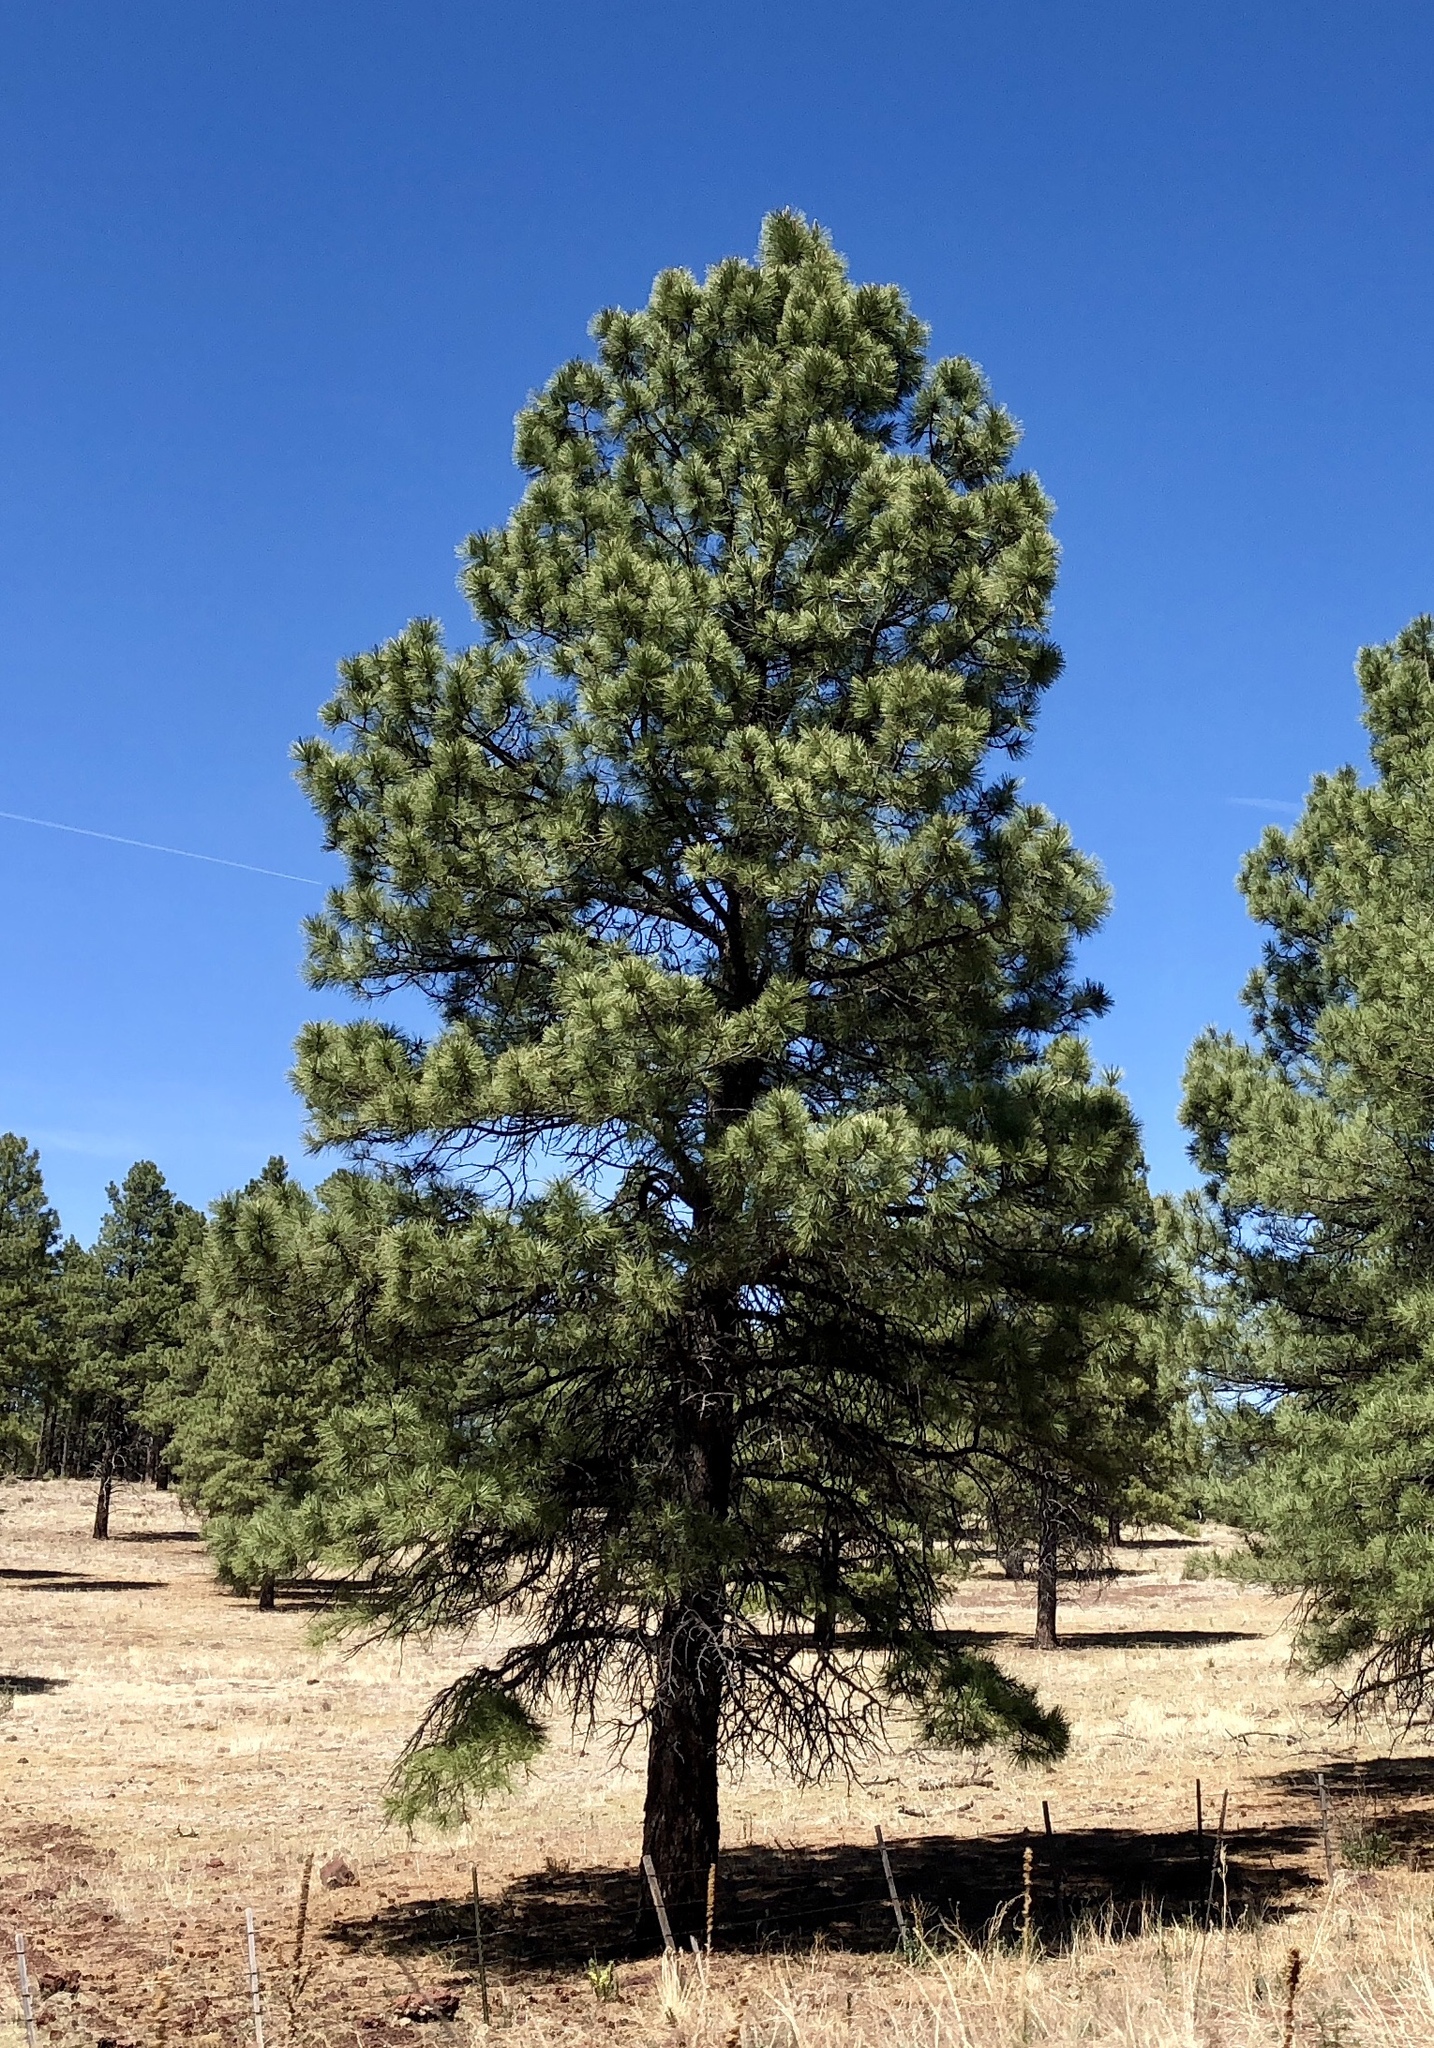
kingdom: Plantae
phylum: Tracheophyta
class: Pinopsida
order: Pinales
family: Pinaceae
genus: Pinus
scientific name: Pinus ponderosa
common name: Western yellow-pine
